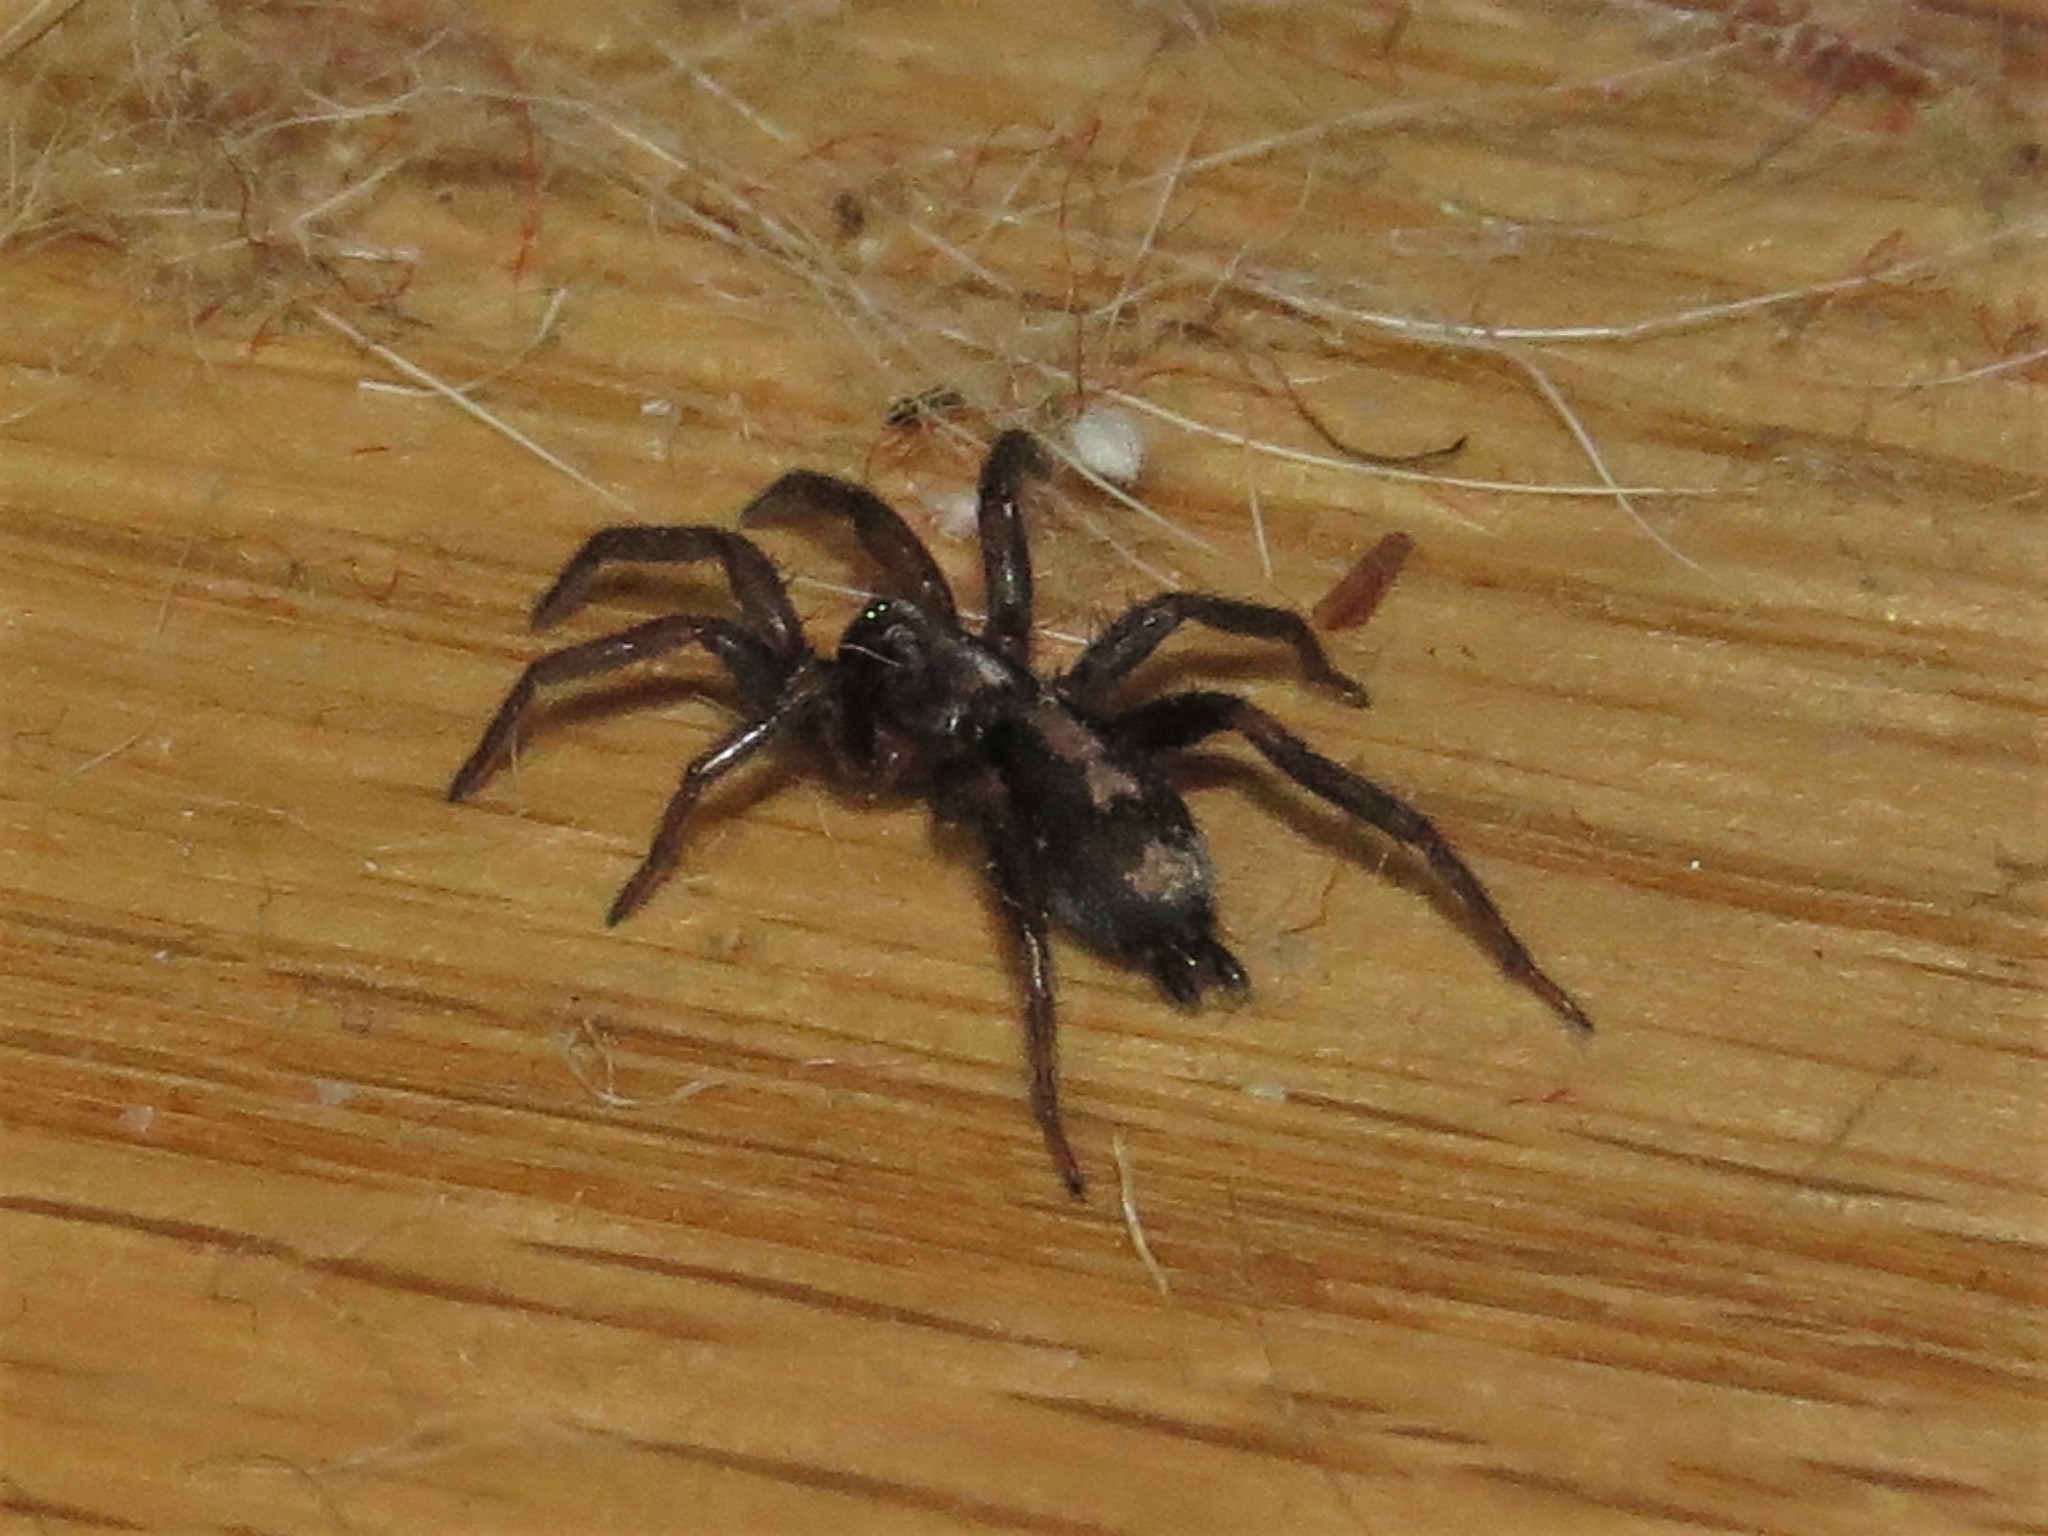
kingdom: Animalia
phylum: Arthropoda
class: Arachnida
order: Araneae
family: Gnaphosidae
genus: Herpyllus
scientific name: Herpyllus ecclesiasticus
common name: Eastern parson spider
